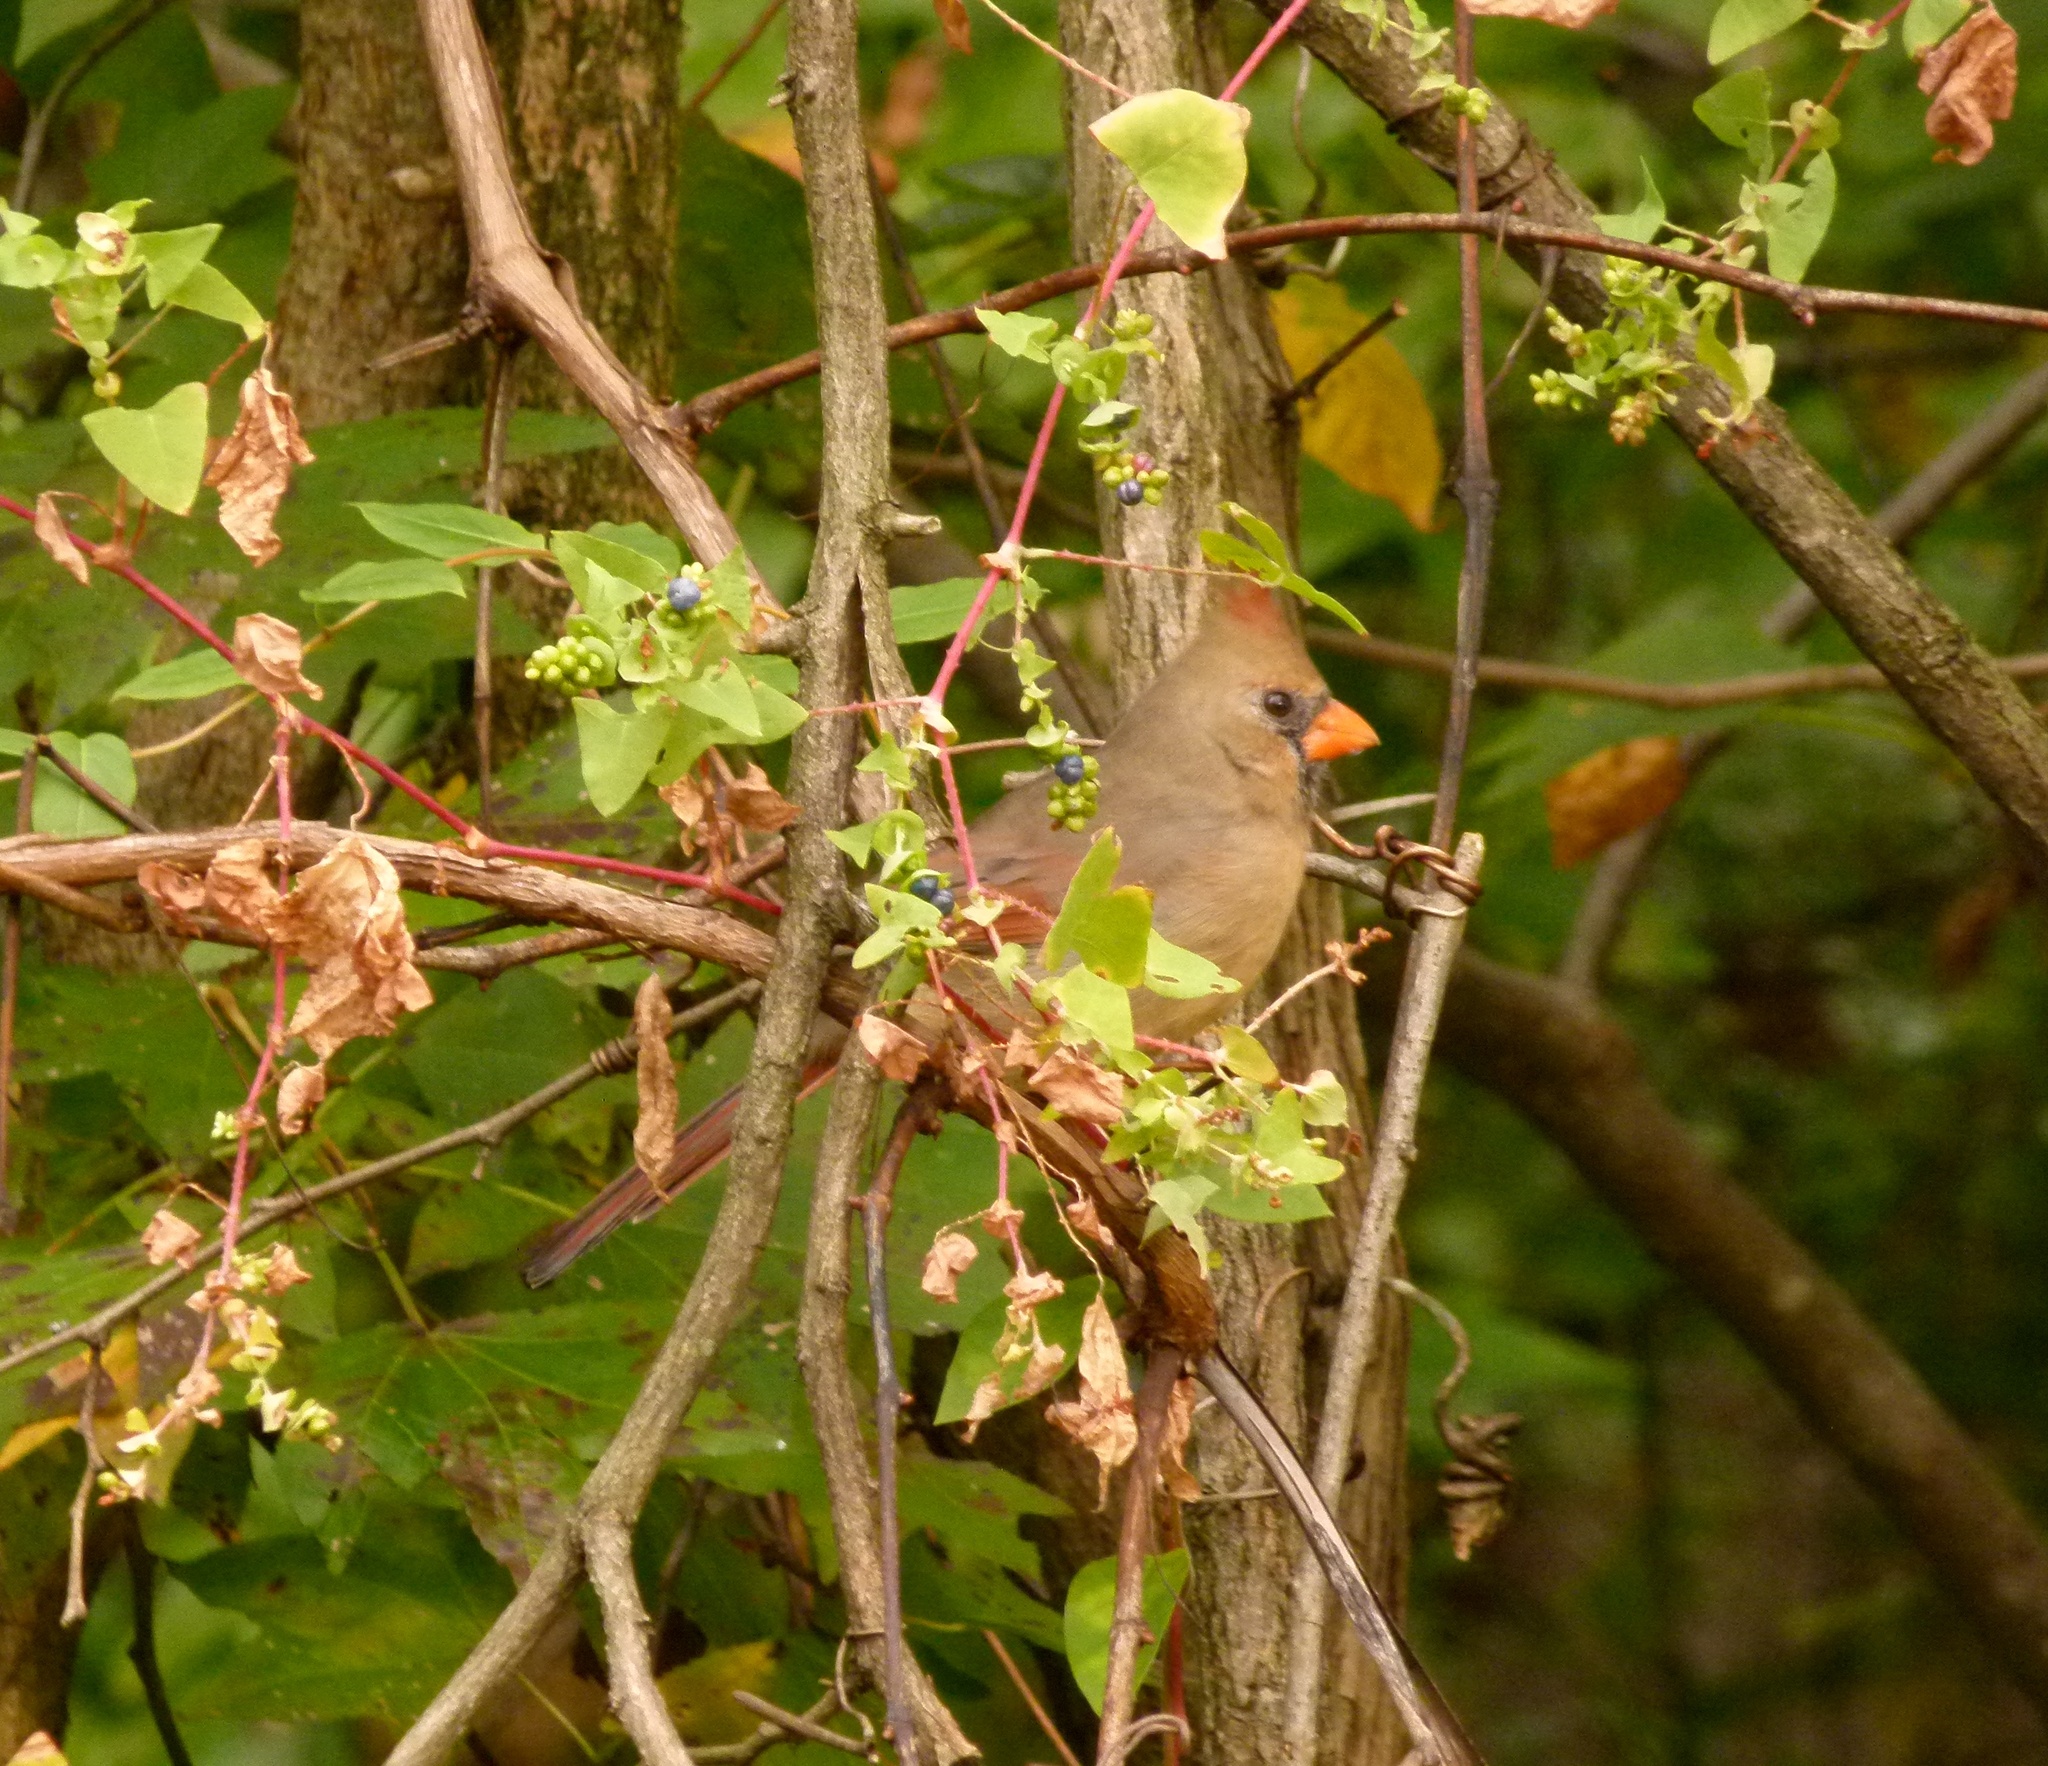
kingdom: Animalia
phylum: Chordata
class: Aves
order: Passeriformes
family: Cardinalidae
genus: Cardinalis
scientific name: Cardinalis cardinalis
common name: Northern cardinal
